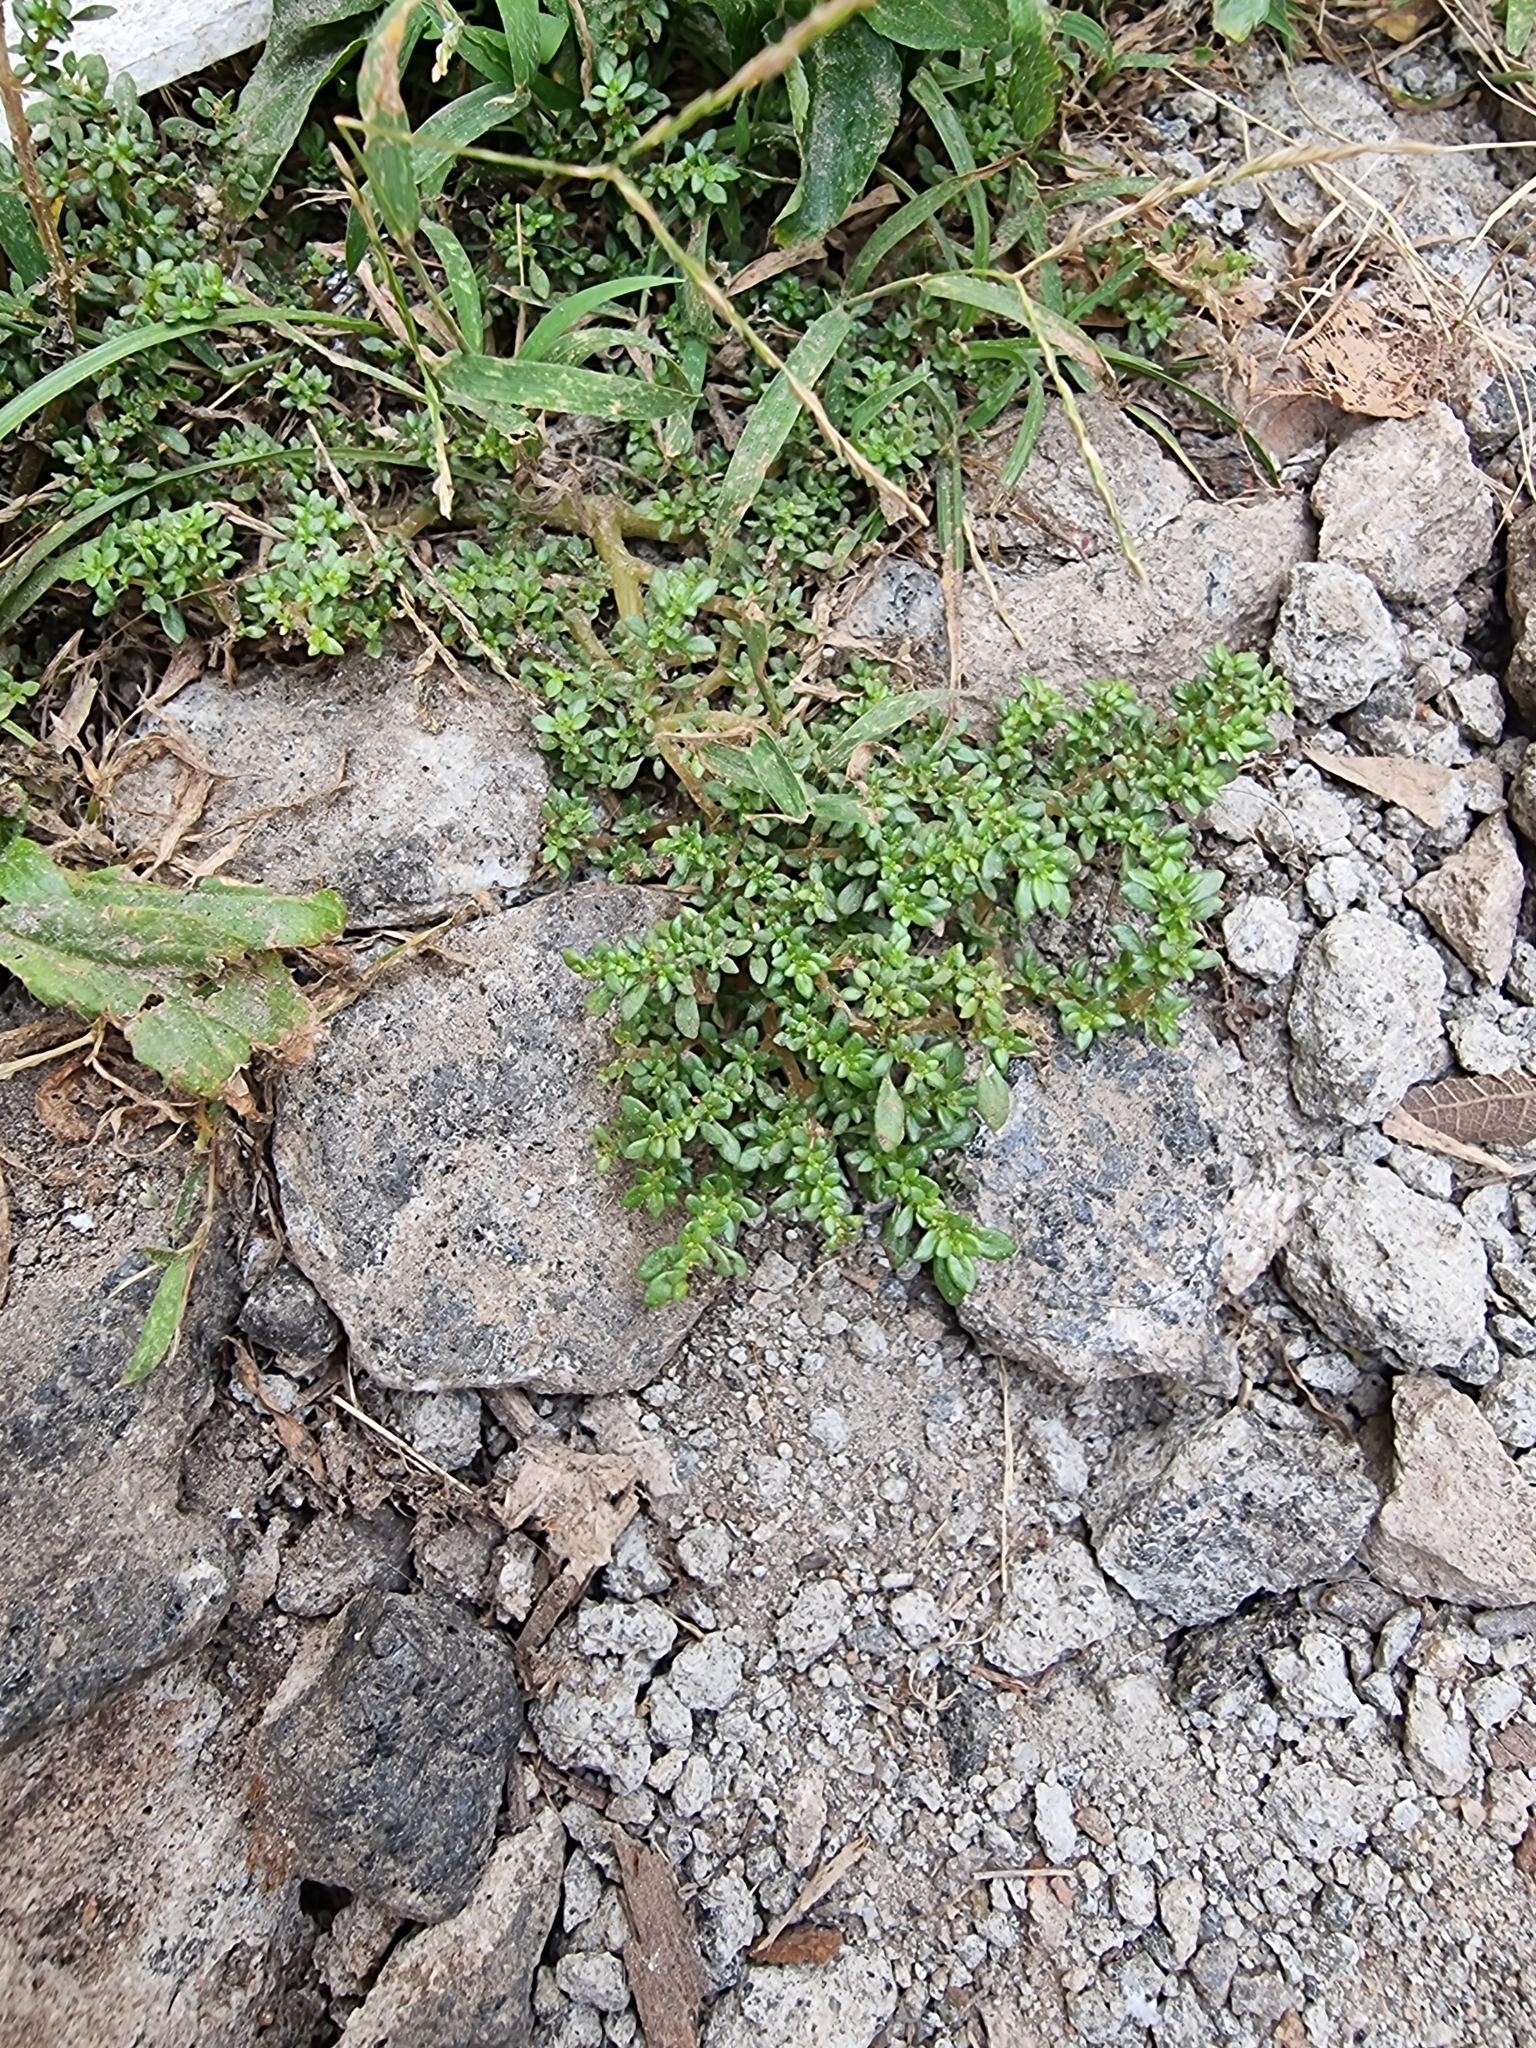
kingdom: Plantae
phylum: Tracheophyta
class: Magnoliopsida
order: Rosales
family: Urticaceae
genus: Pilea
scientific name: Pilea microphylla
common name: Artillery-plant
